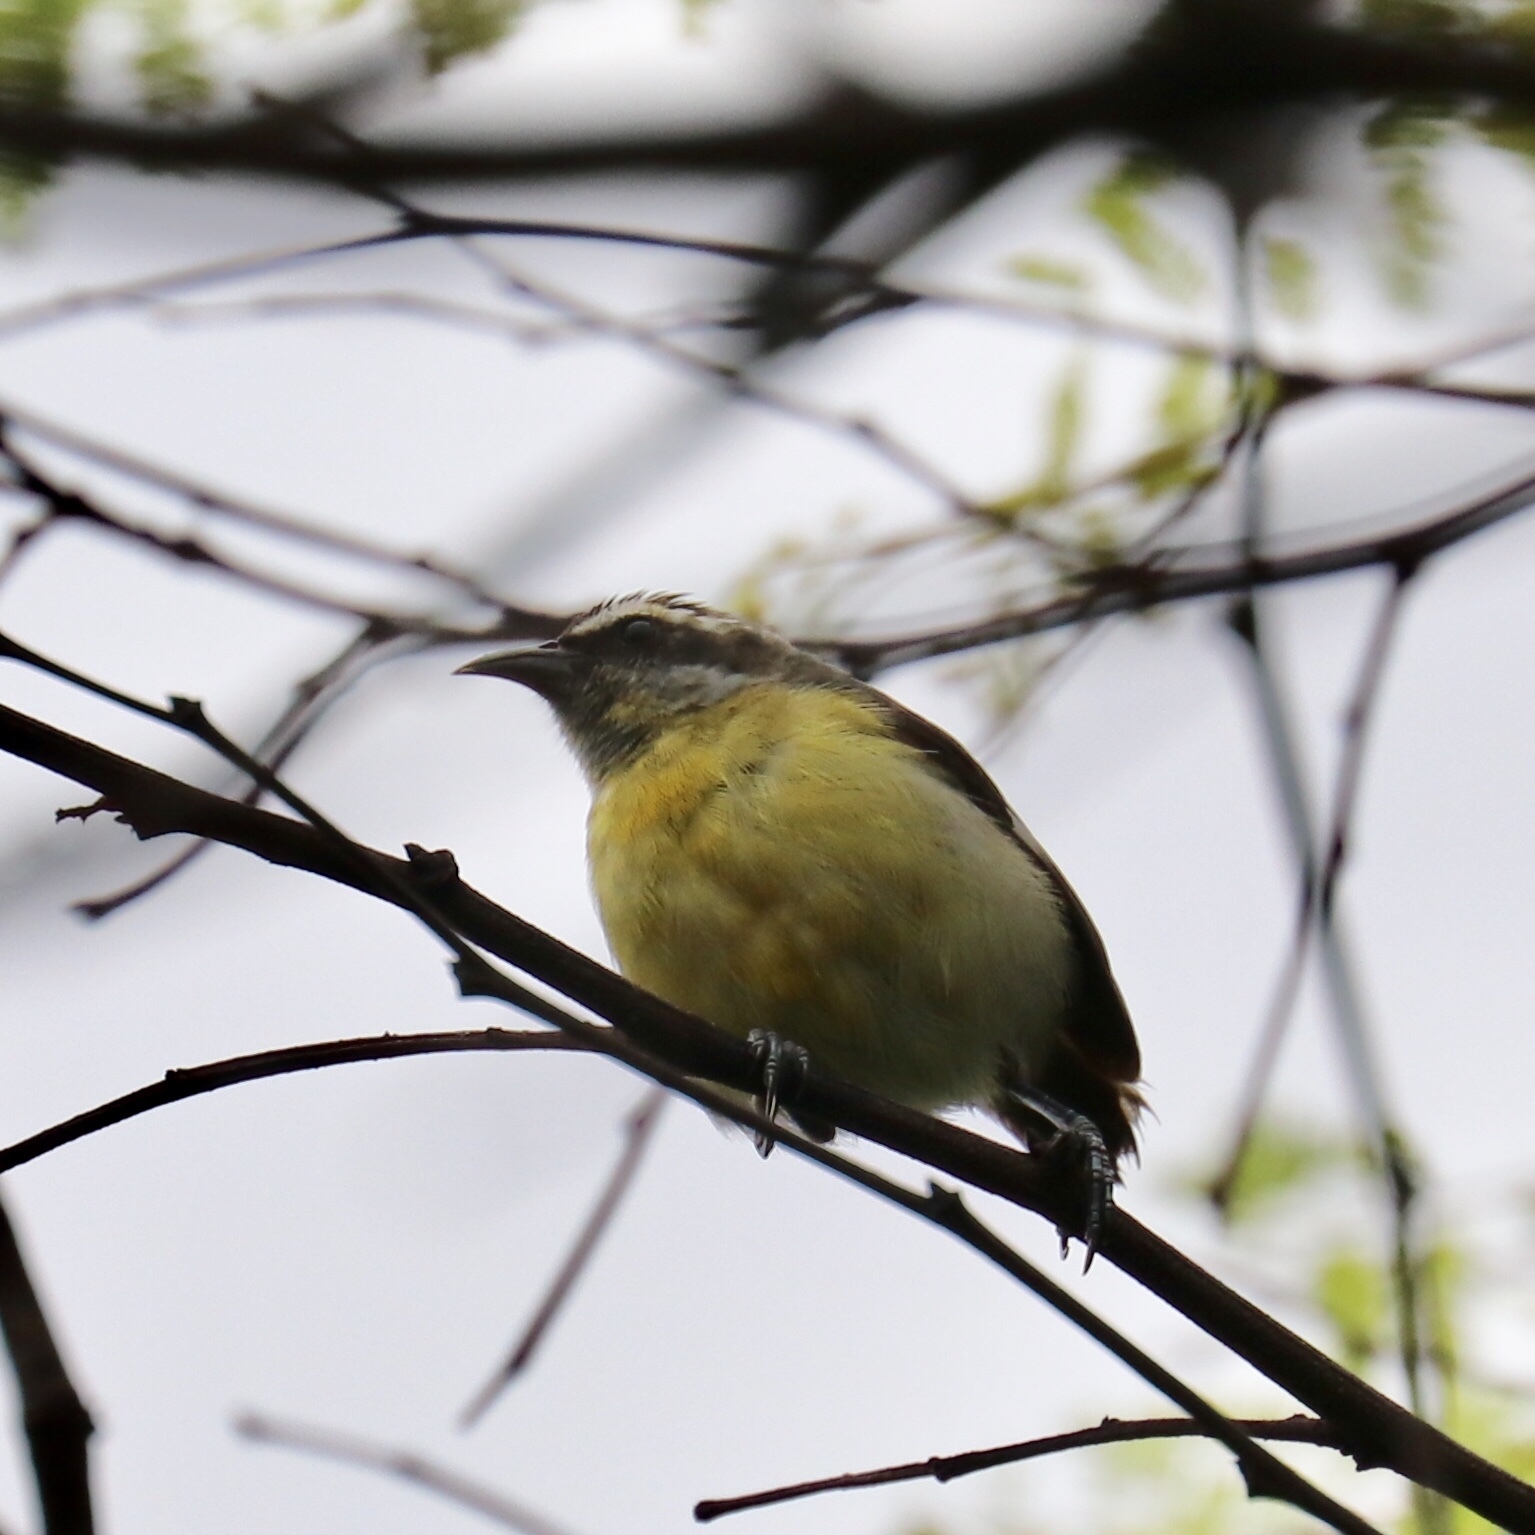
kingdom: Animalia
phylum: Chordata
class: Aves
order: Passeriformes
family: Thraupidae
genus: Coereba
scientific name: Coereba flaveola
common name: Bananaquit
